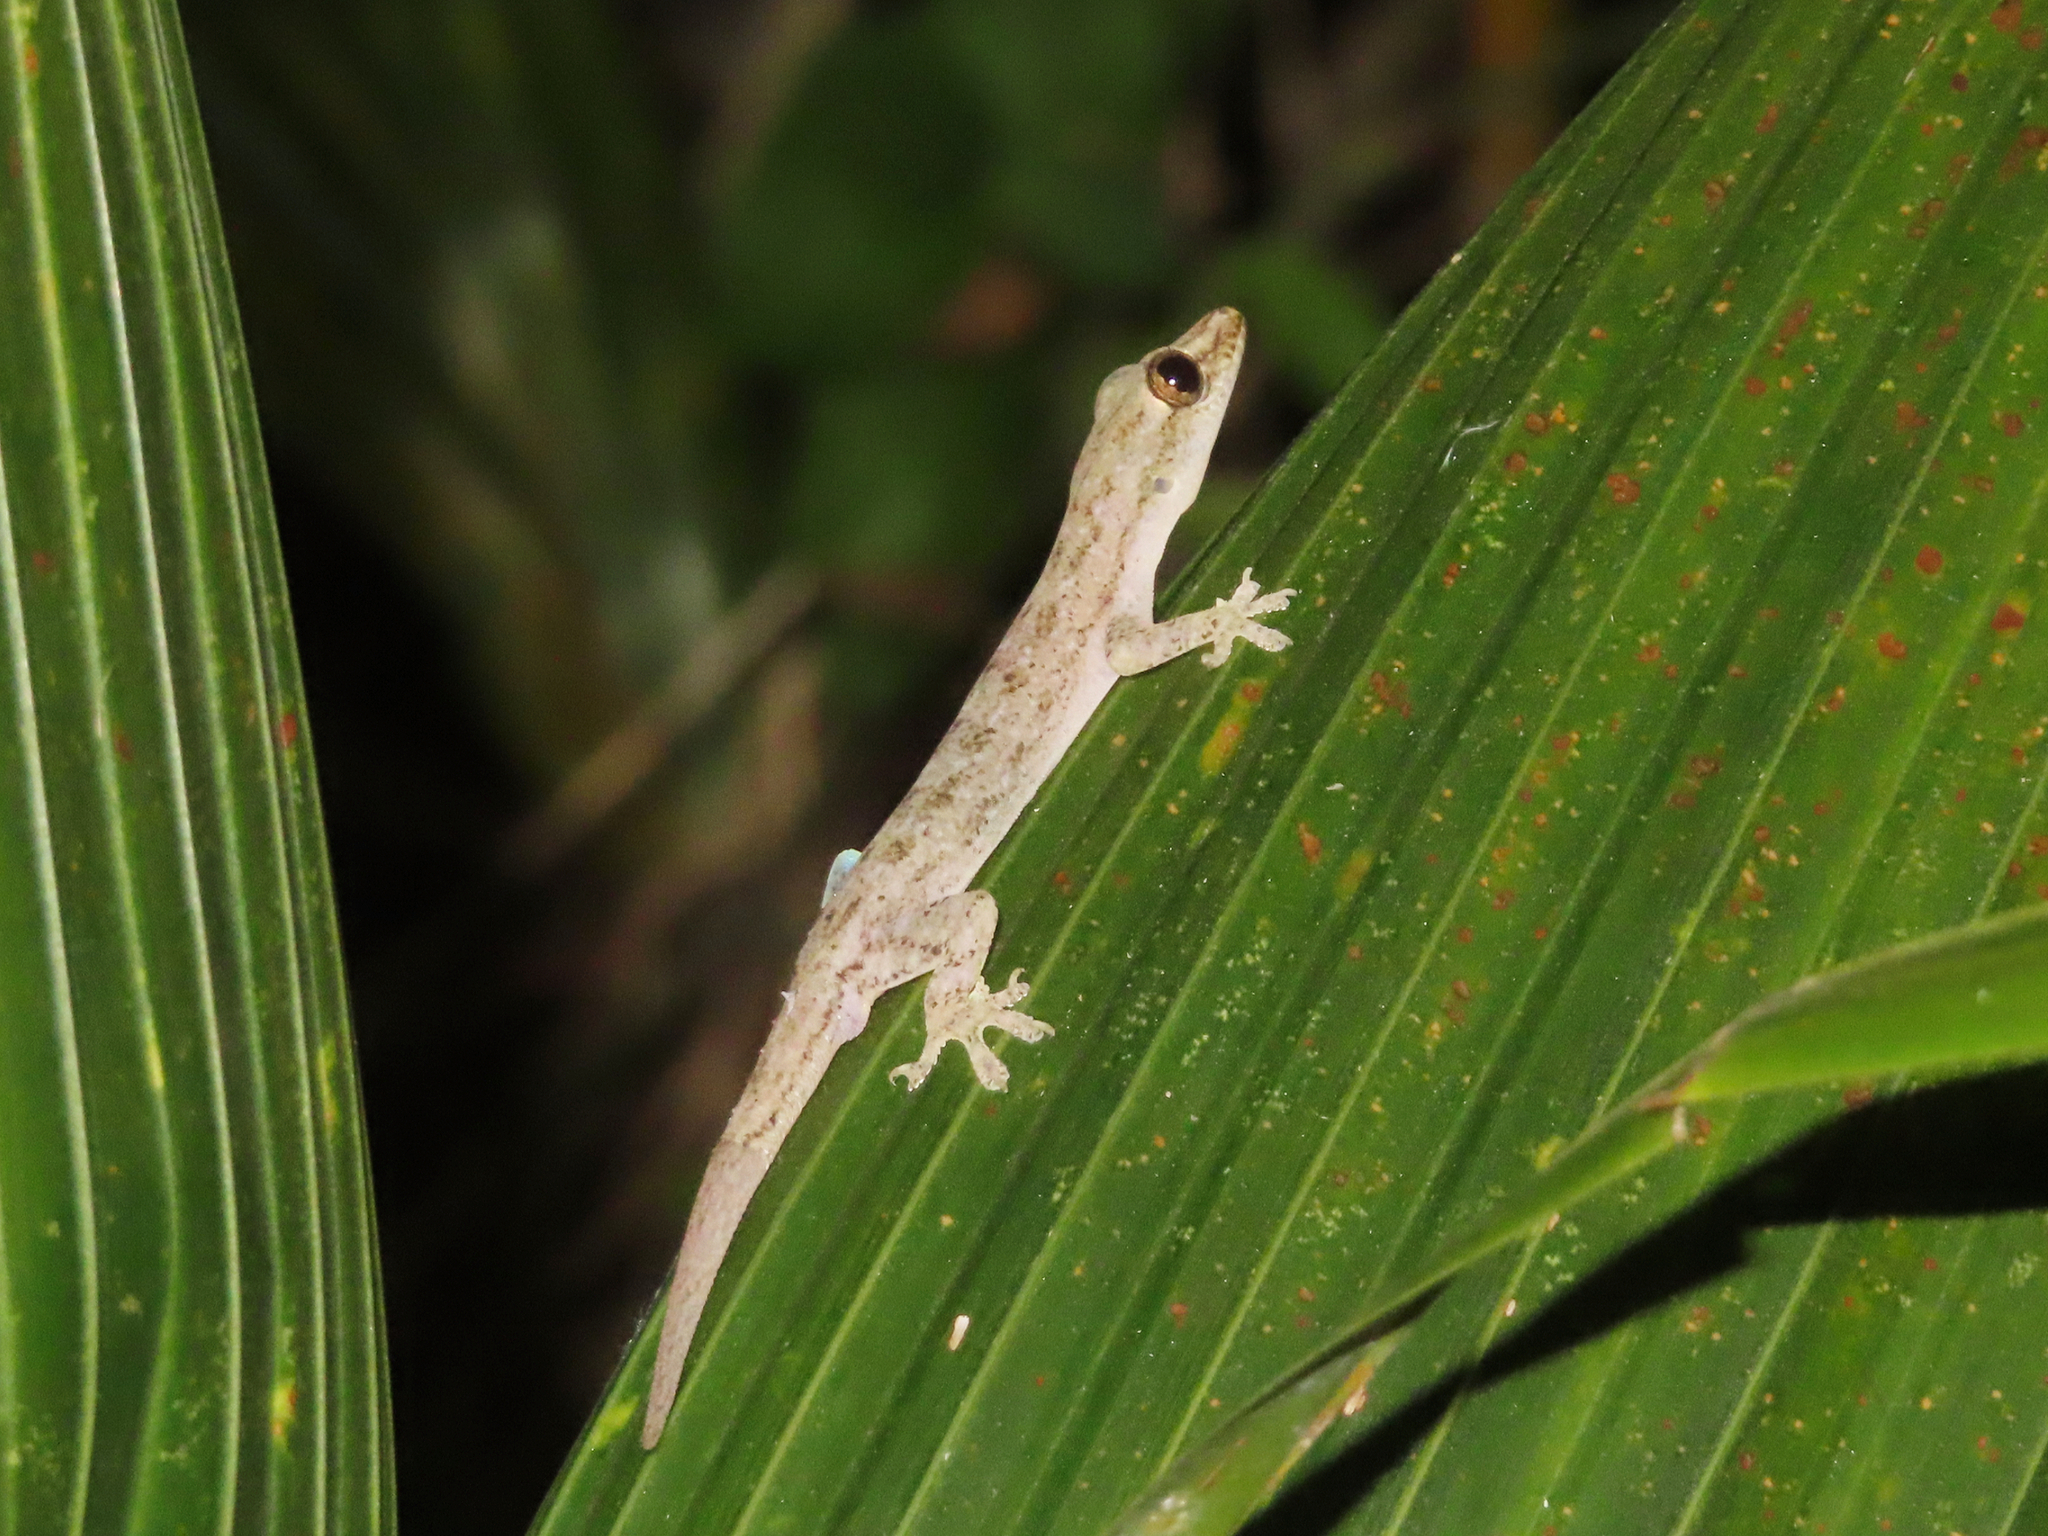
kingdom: Animalia
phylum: Chordata
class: Squamata
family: Gekkonidae
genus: Hemidactylus
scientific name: Hemidactylus frenatus
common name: Common house gecko
